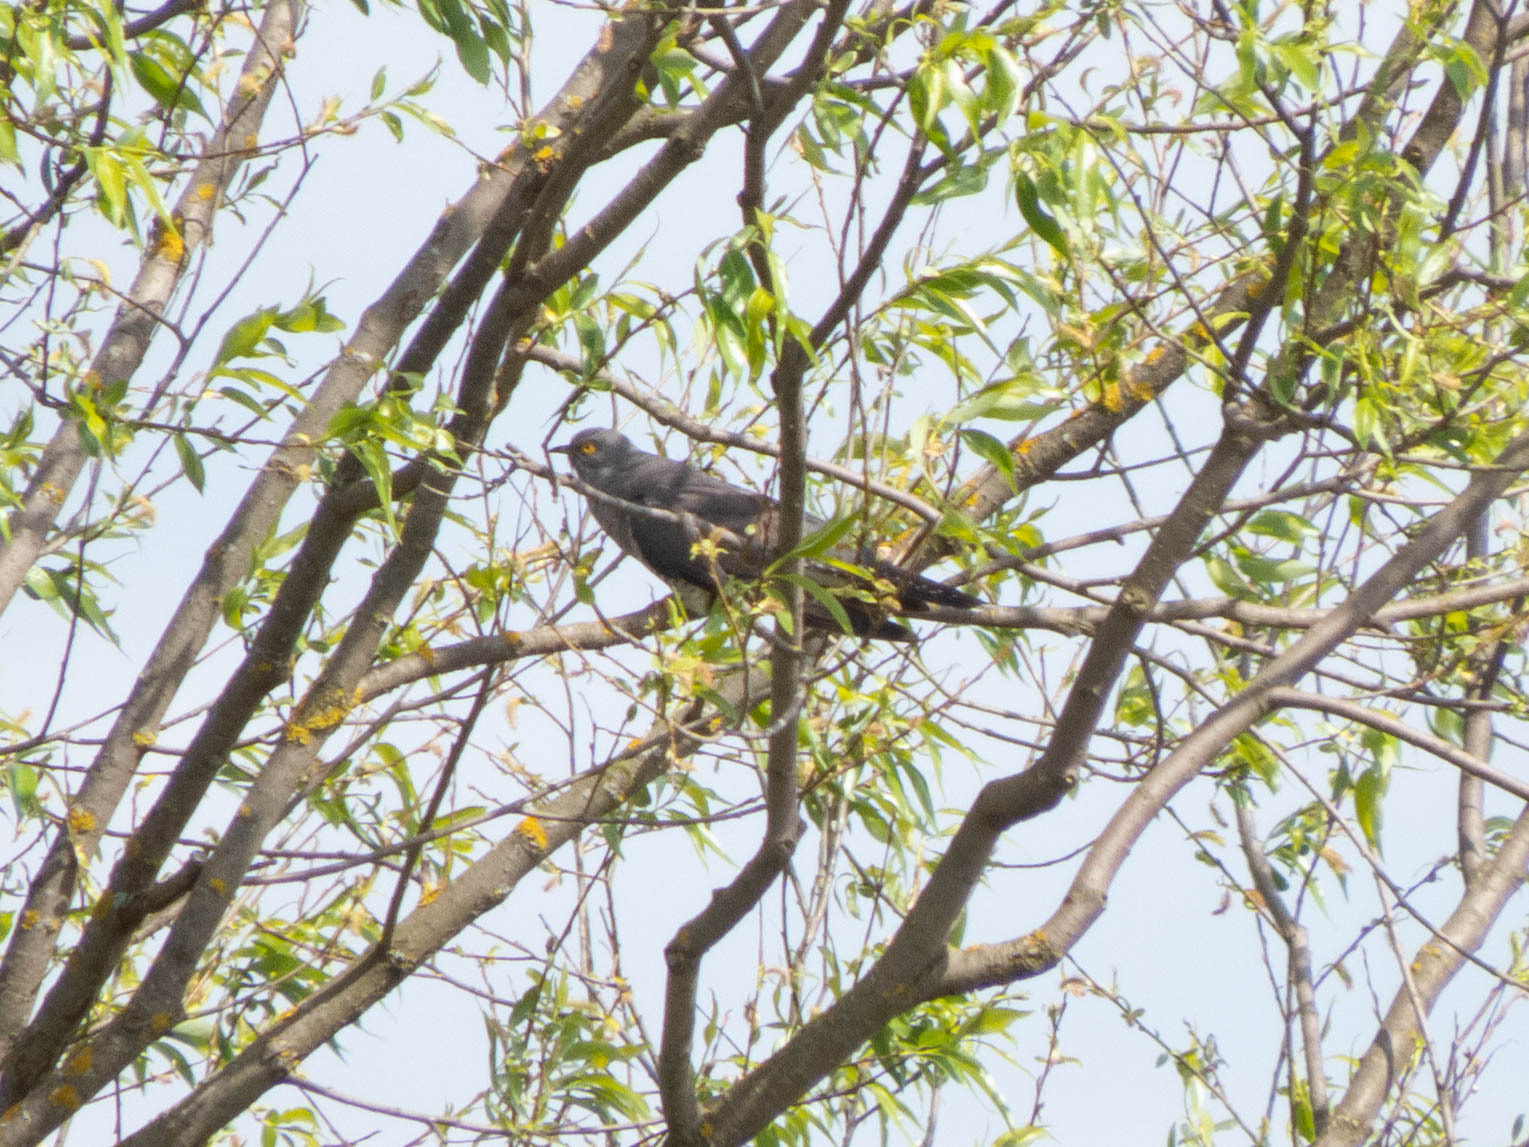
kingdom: Animalia
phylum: Chordata
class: Aves
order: Cuculiformes
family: Cuculidae
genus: Cuculus
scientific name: Cuculus canorus
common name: Common cuckoo
